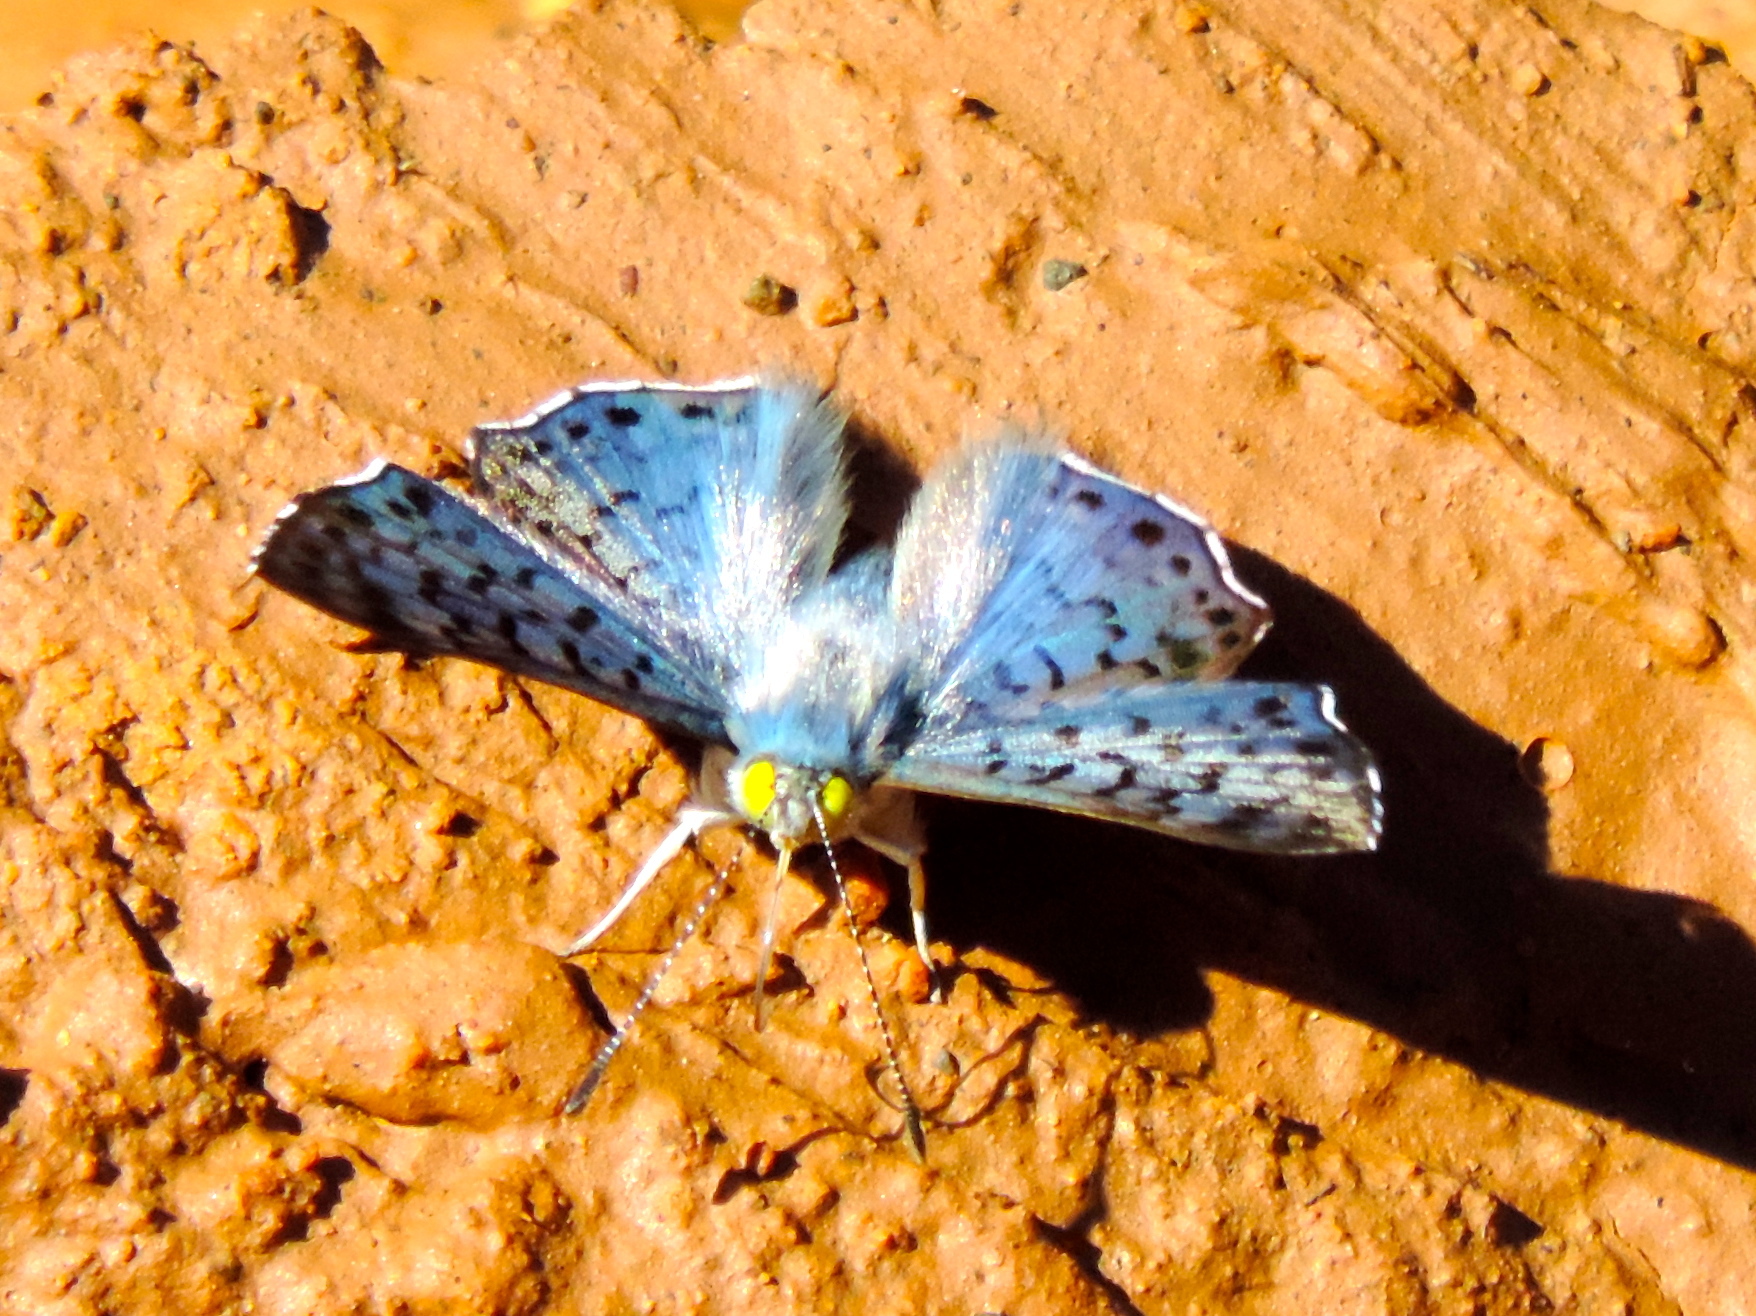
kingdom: Animalia
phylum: Arthropoda
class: Insecta
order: Lepidoptera
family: Riodinidae
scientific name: Riodinidae
